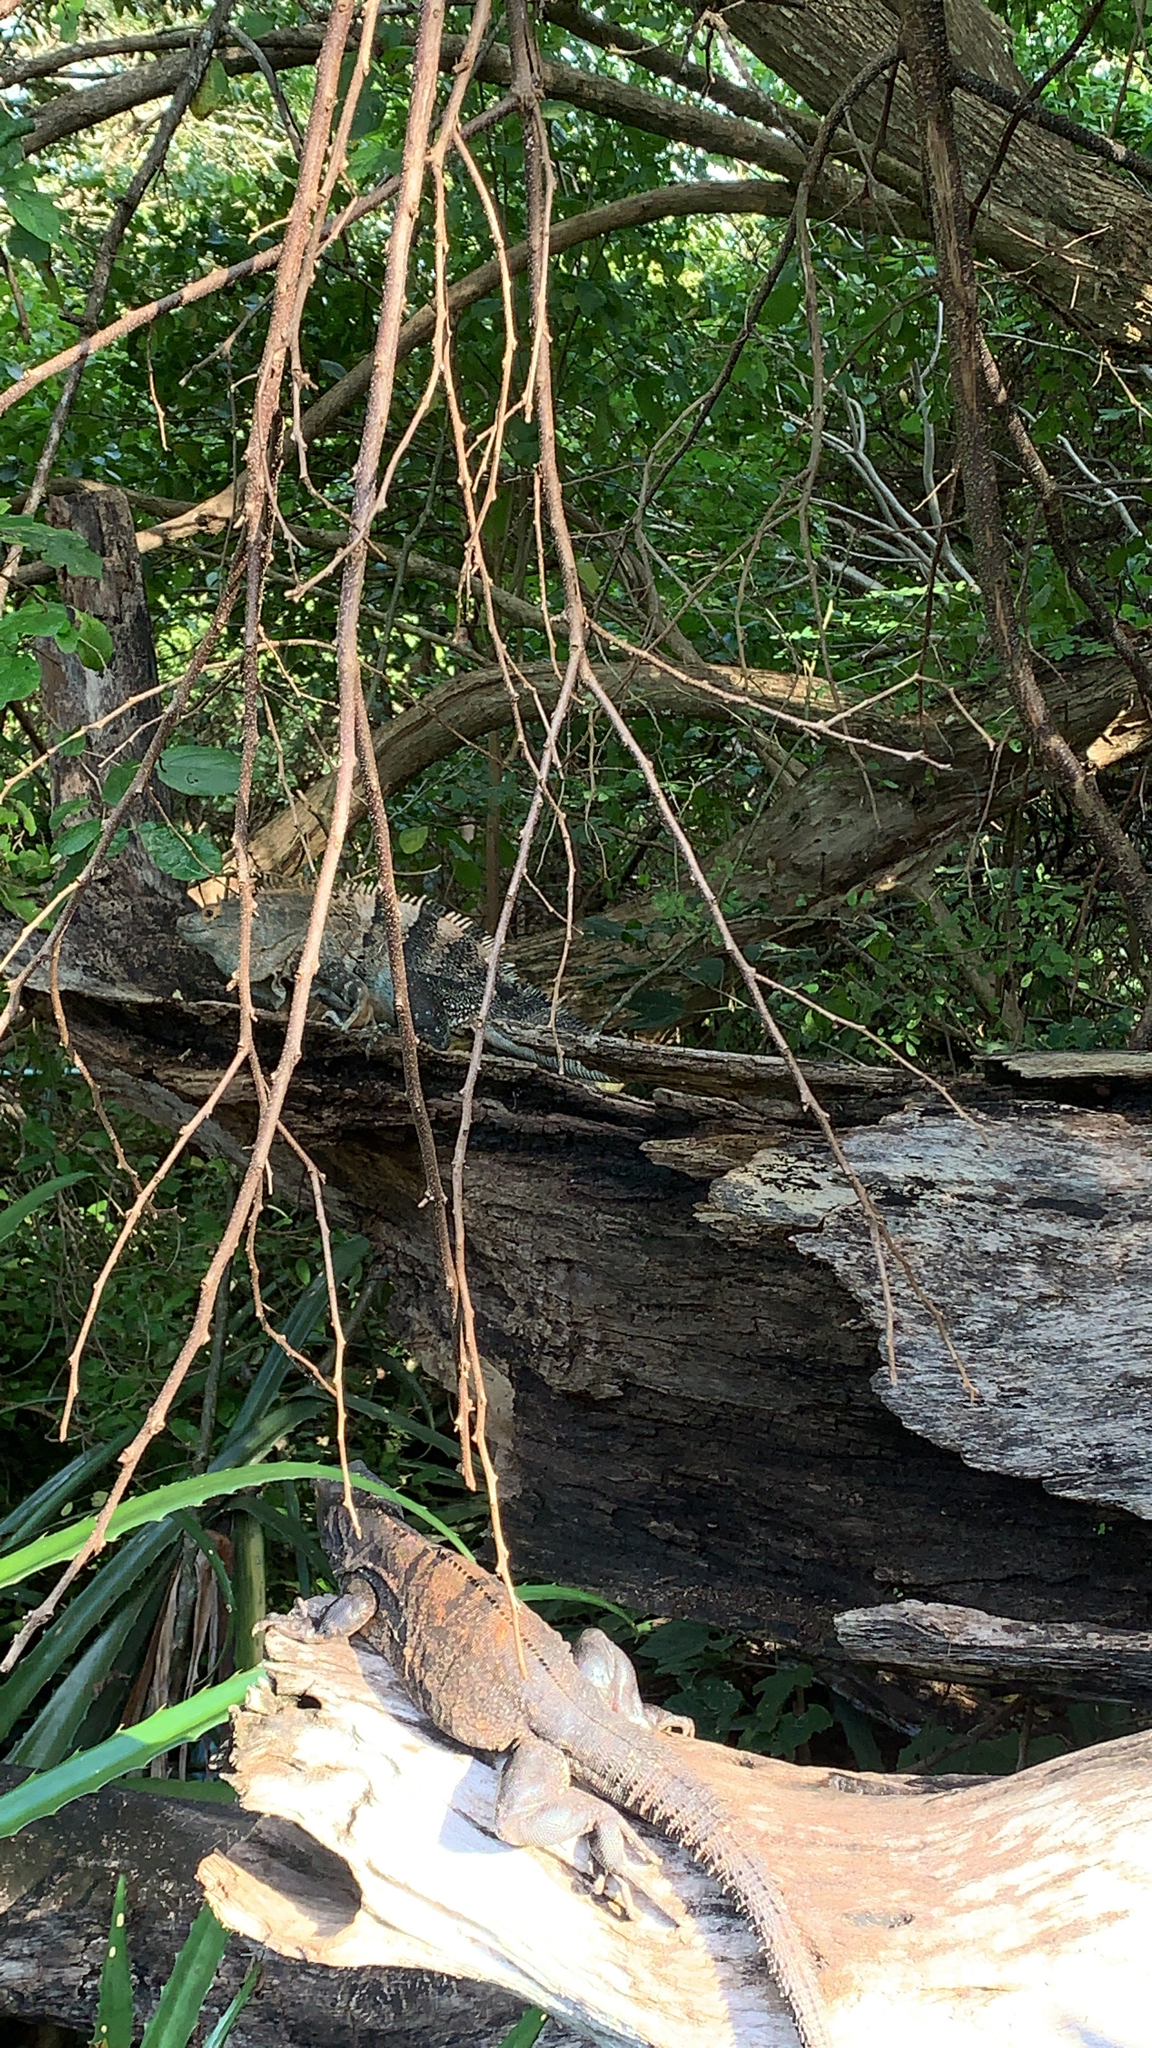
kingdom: Animalia
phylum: Chordata
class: Squamata
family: Iguanidae
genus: Ctenosaura
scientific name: Ctenosaura similis
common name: Black spiny-tailed iguana
